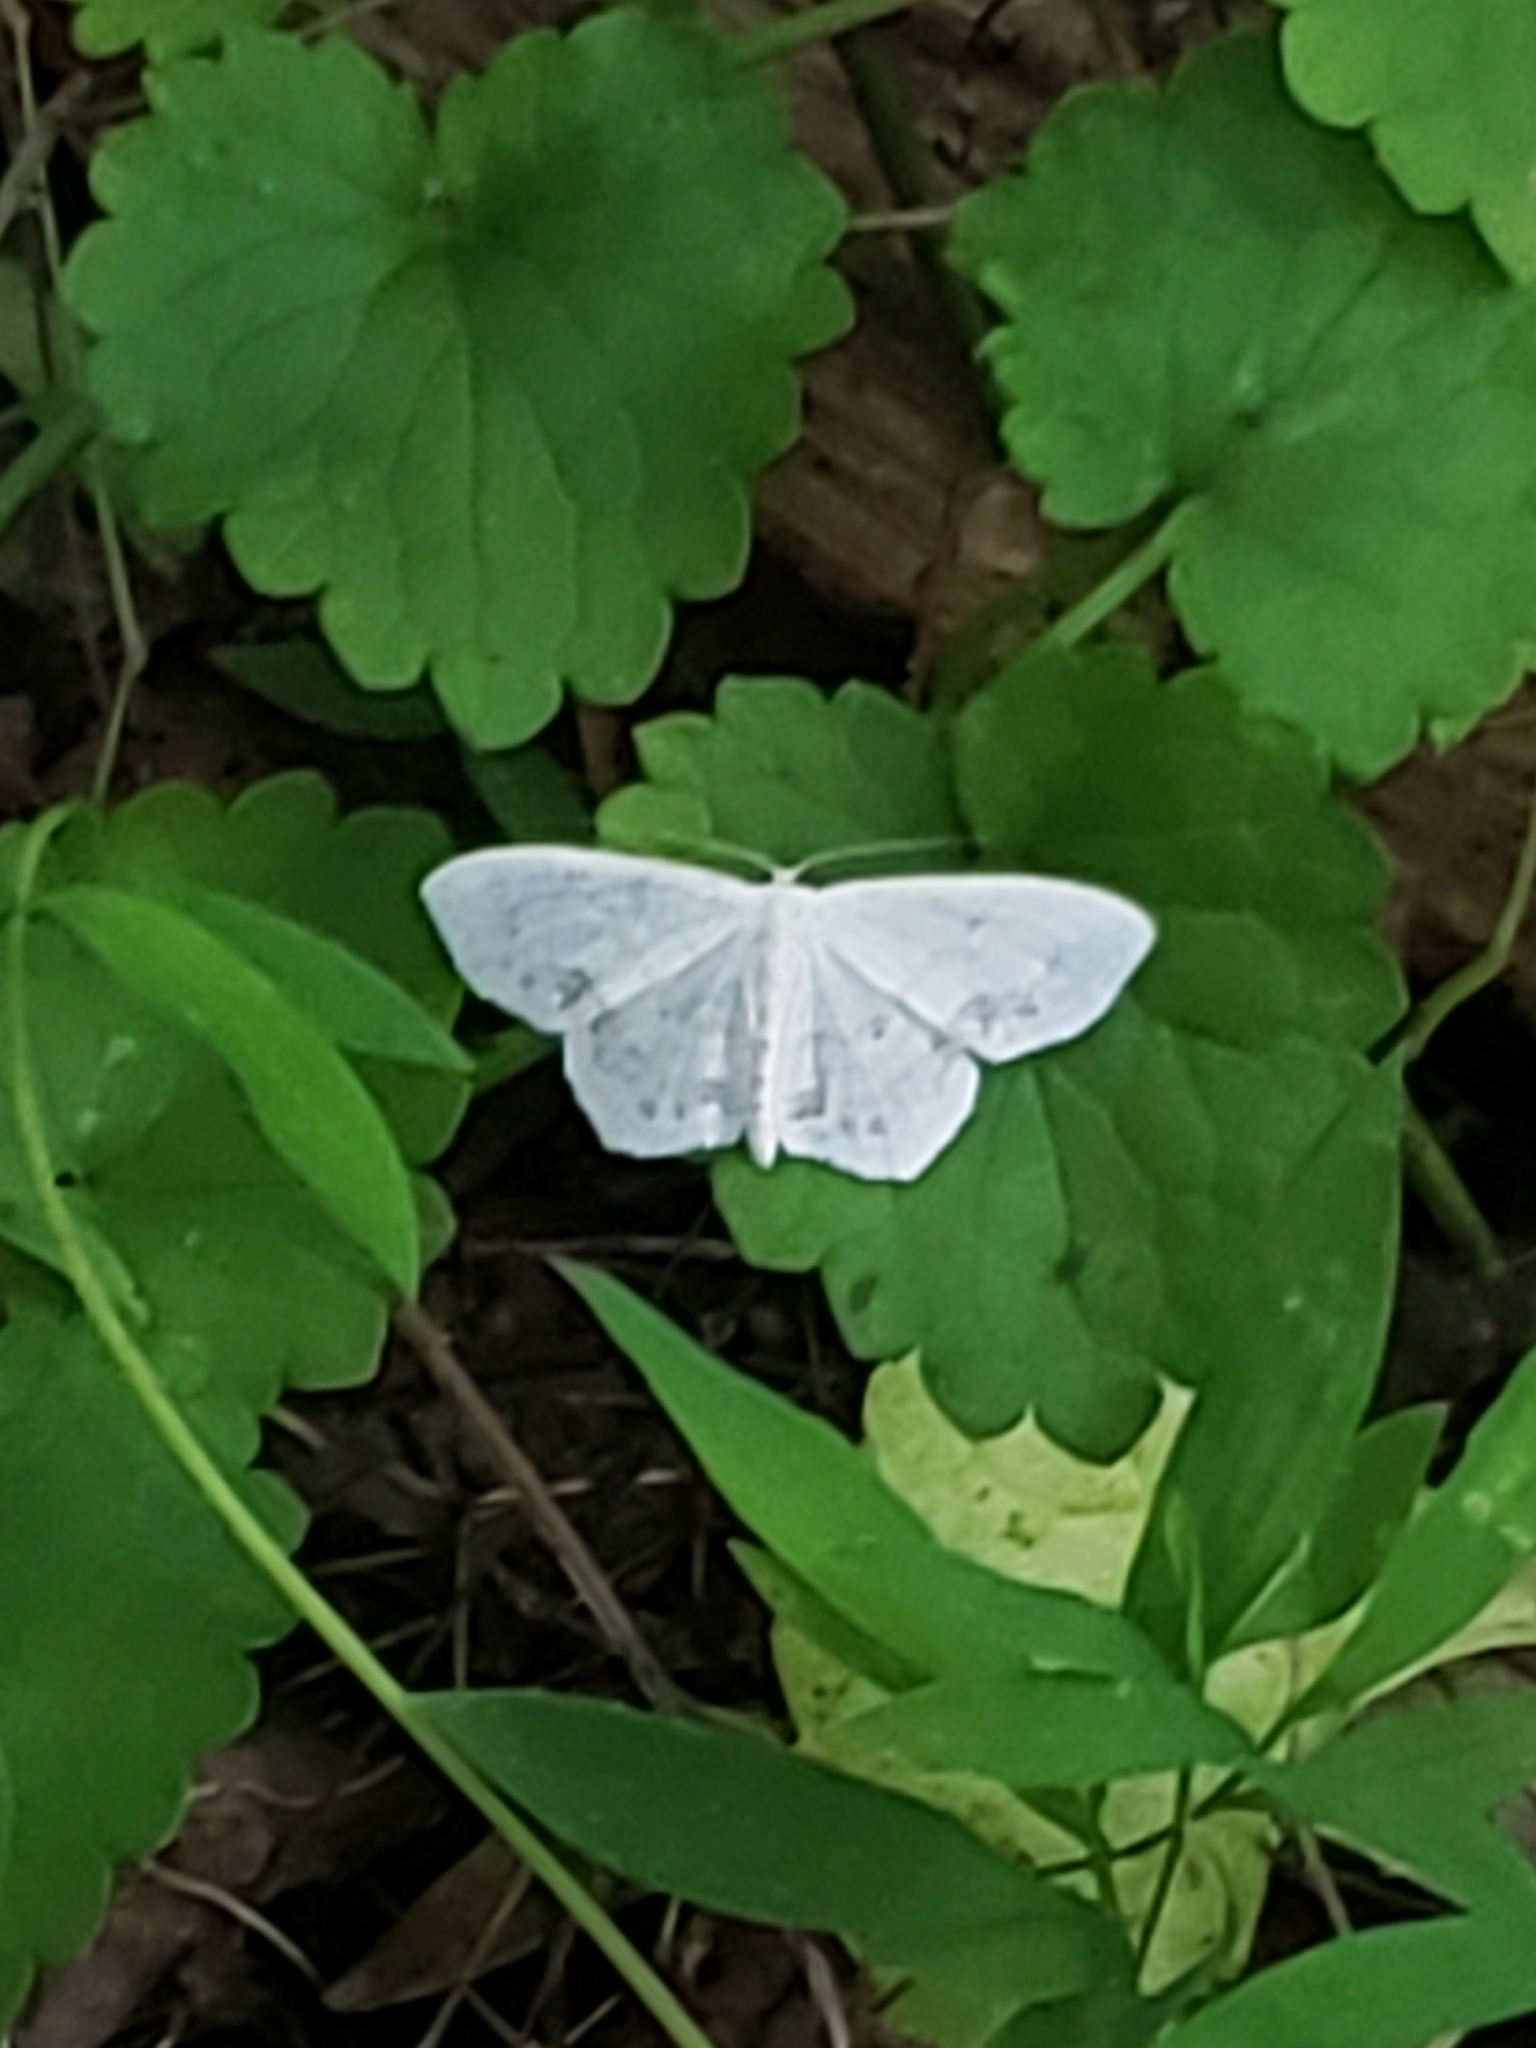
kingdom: Animalia
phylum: Arthropoda
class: Insecta
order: Lepidoptera
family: Geometridae
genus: Scopula
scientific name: Scopula limboundata
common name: Large lace border
